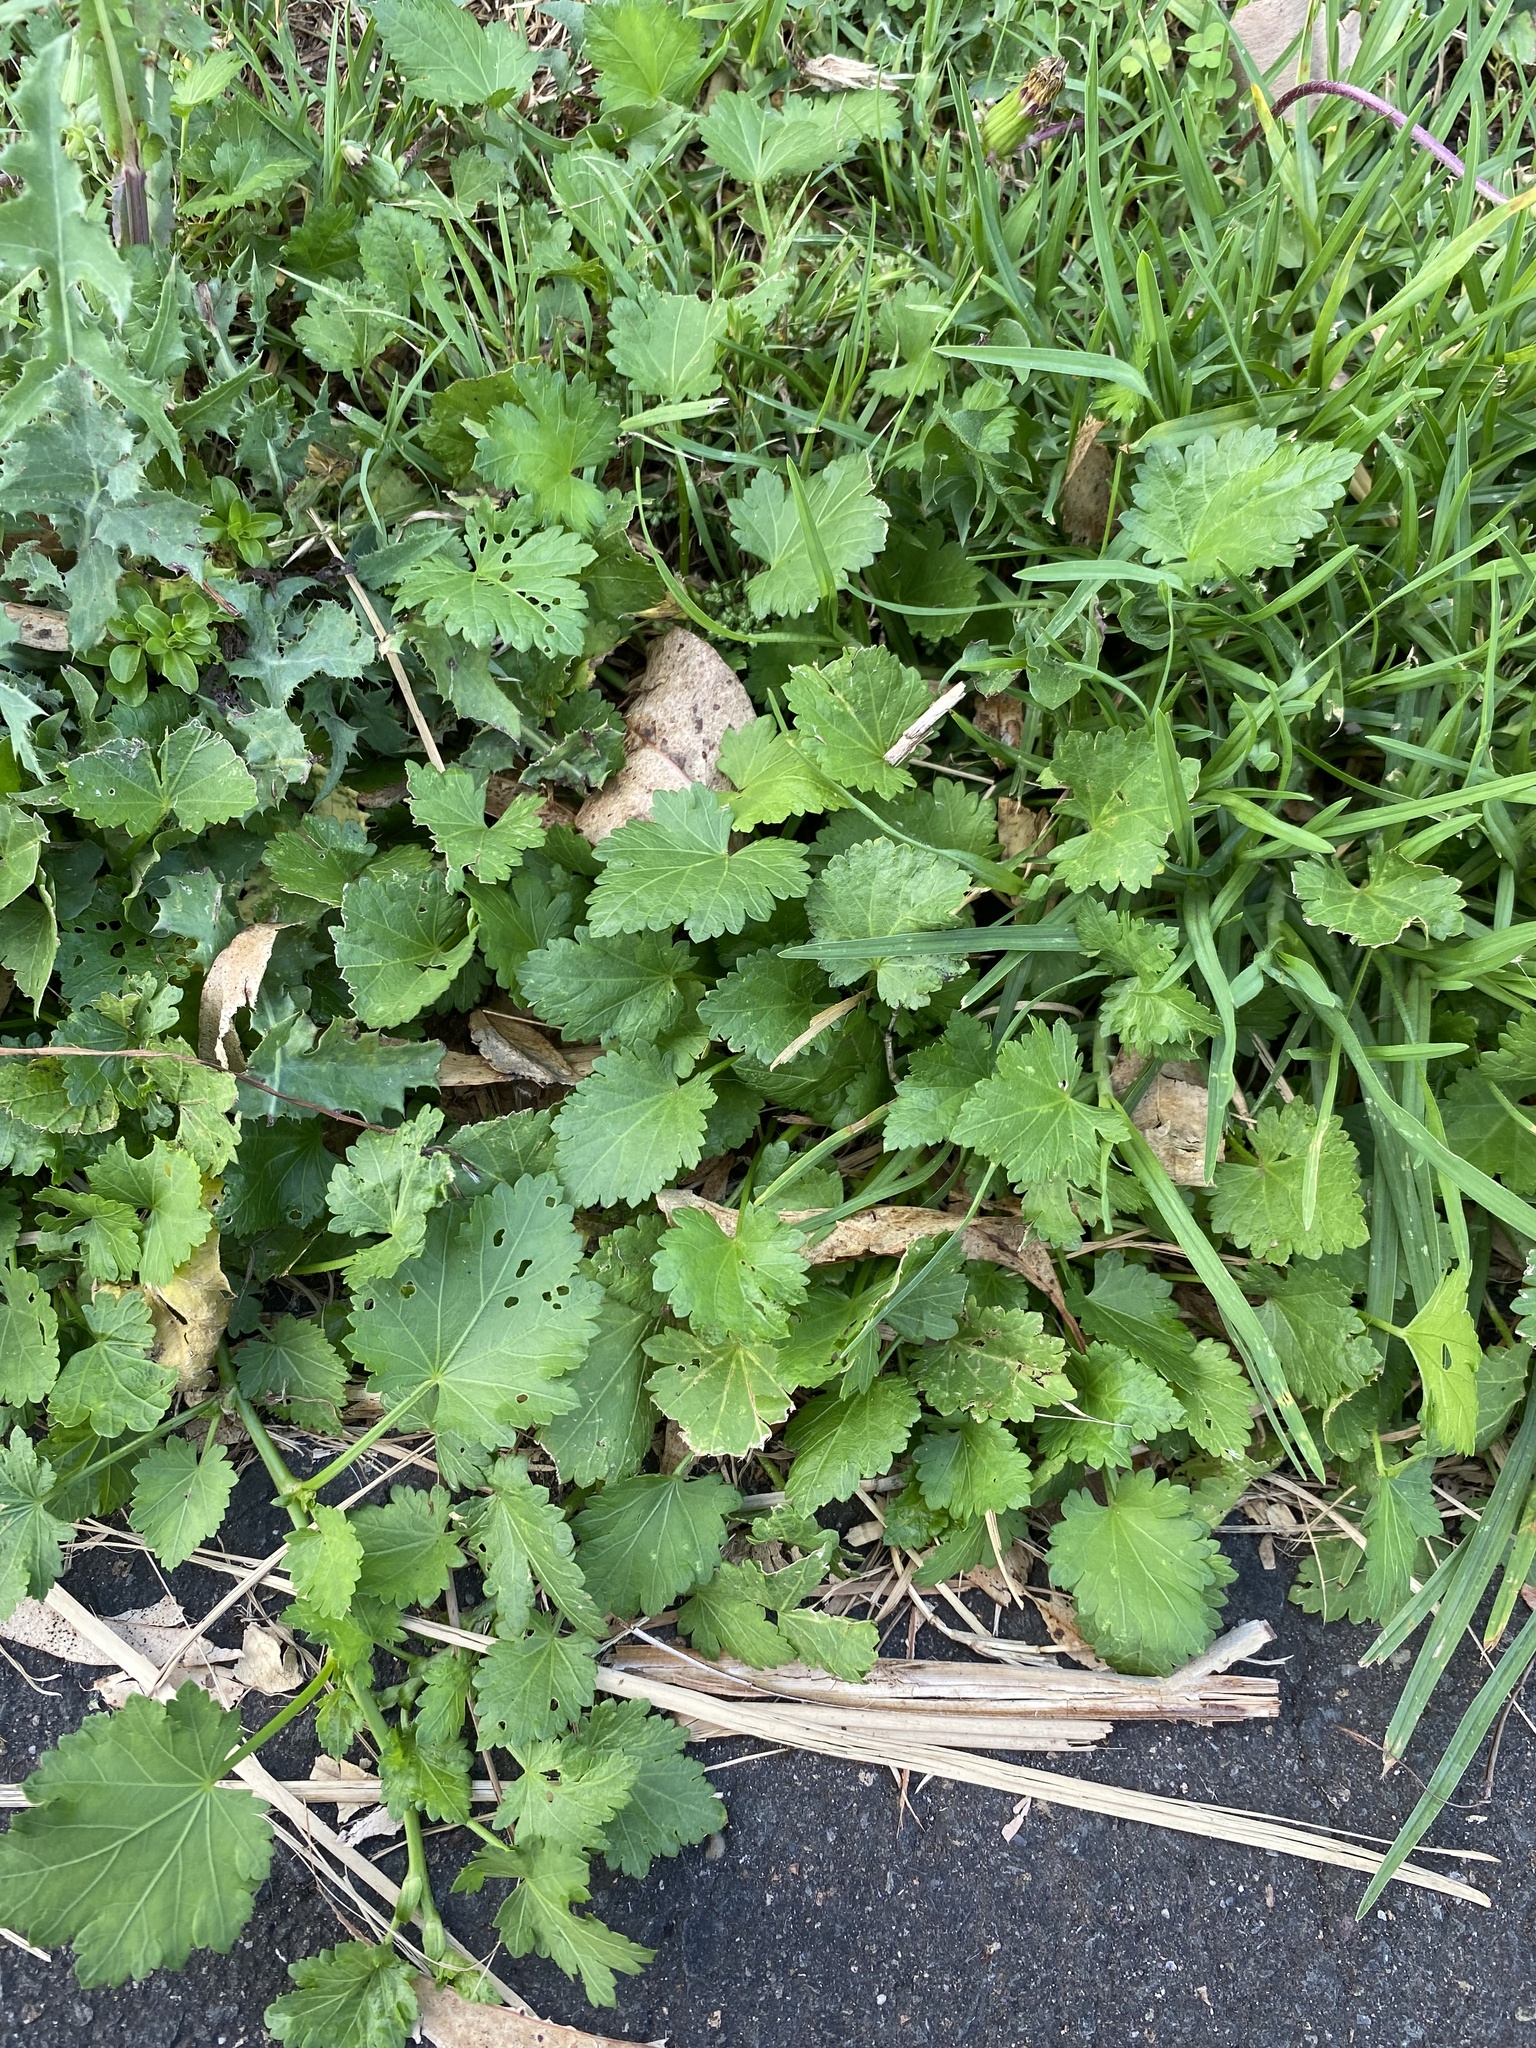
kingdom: Plantae
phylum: Tracheophyta
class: Magnoliopsida
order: Malvales
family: Malvaceae
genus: Modiola
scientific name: Modiola caroliniana
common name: Carolina bristlemallow
